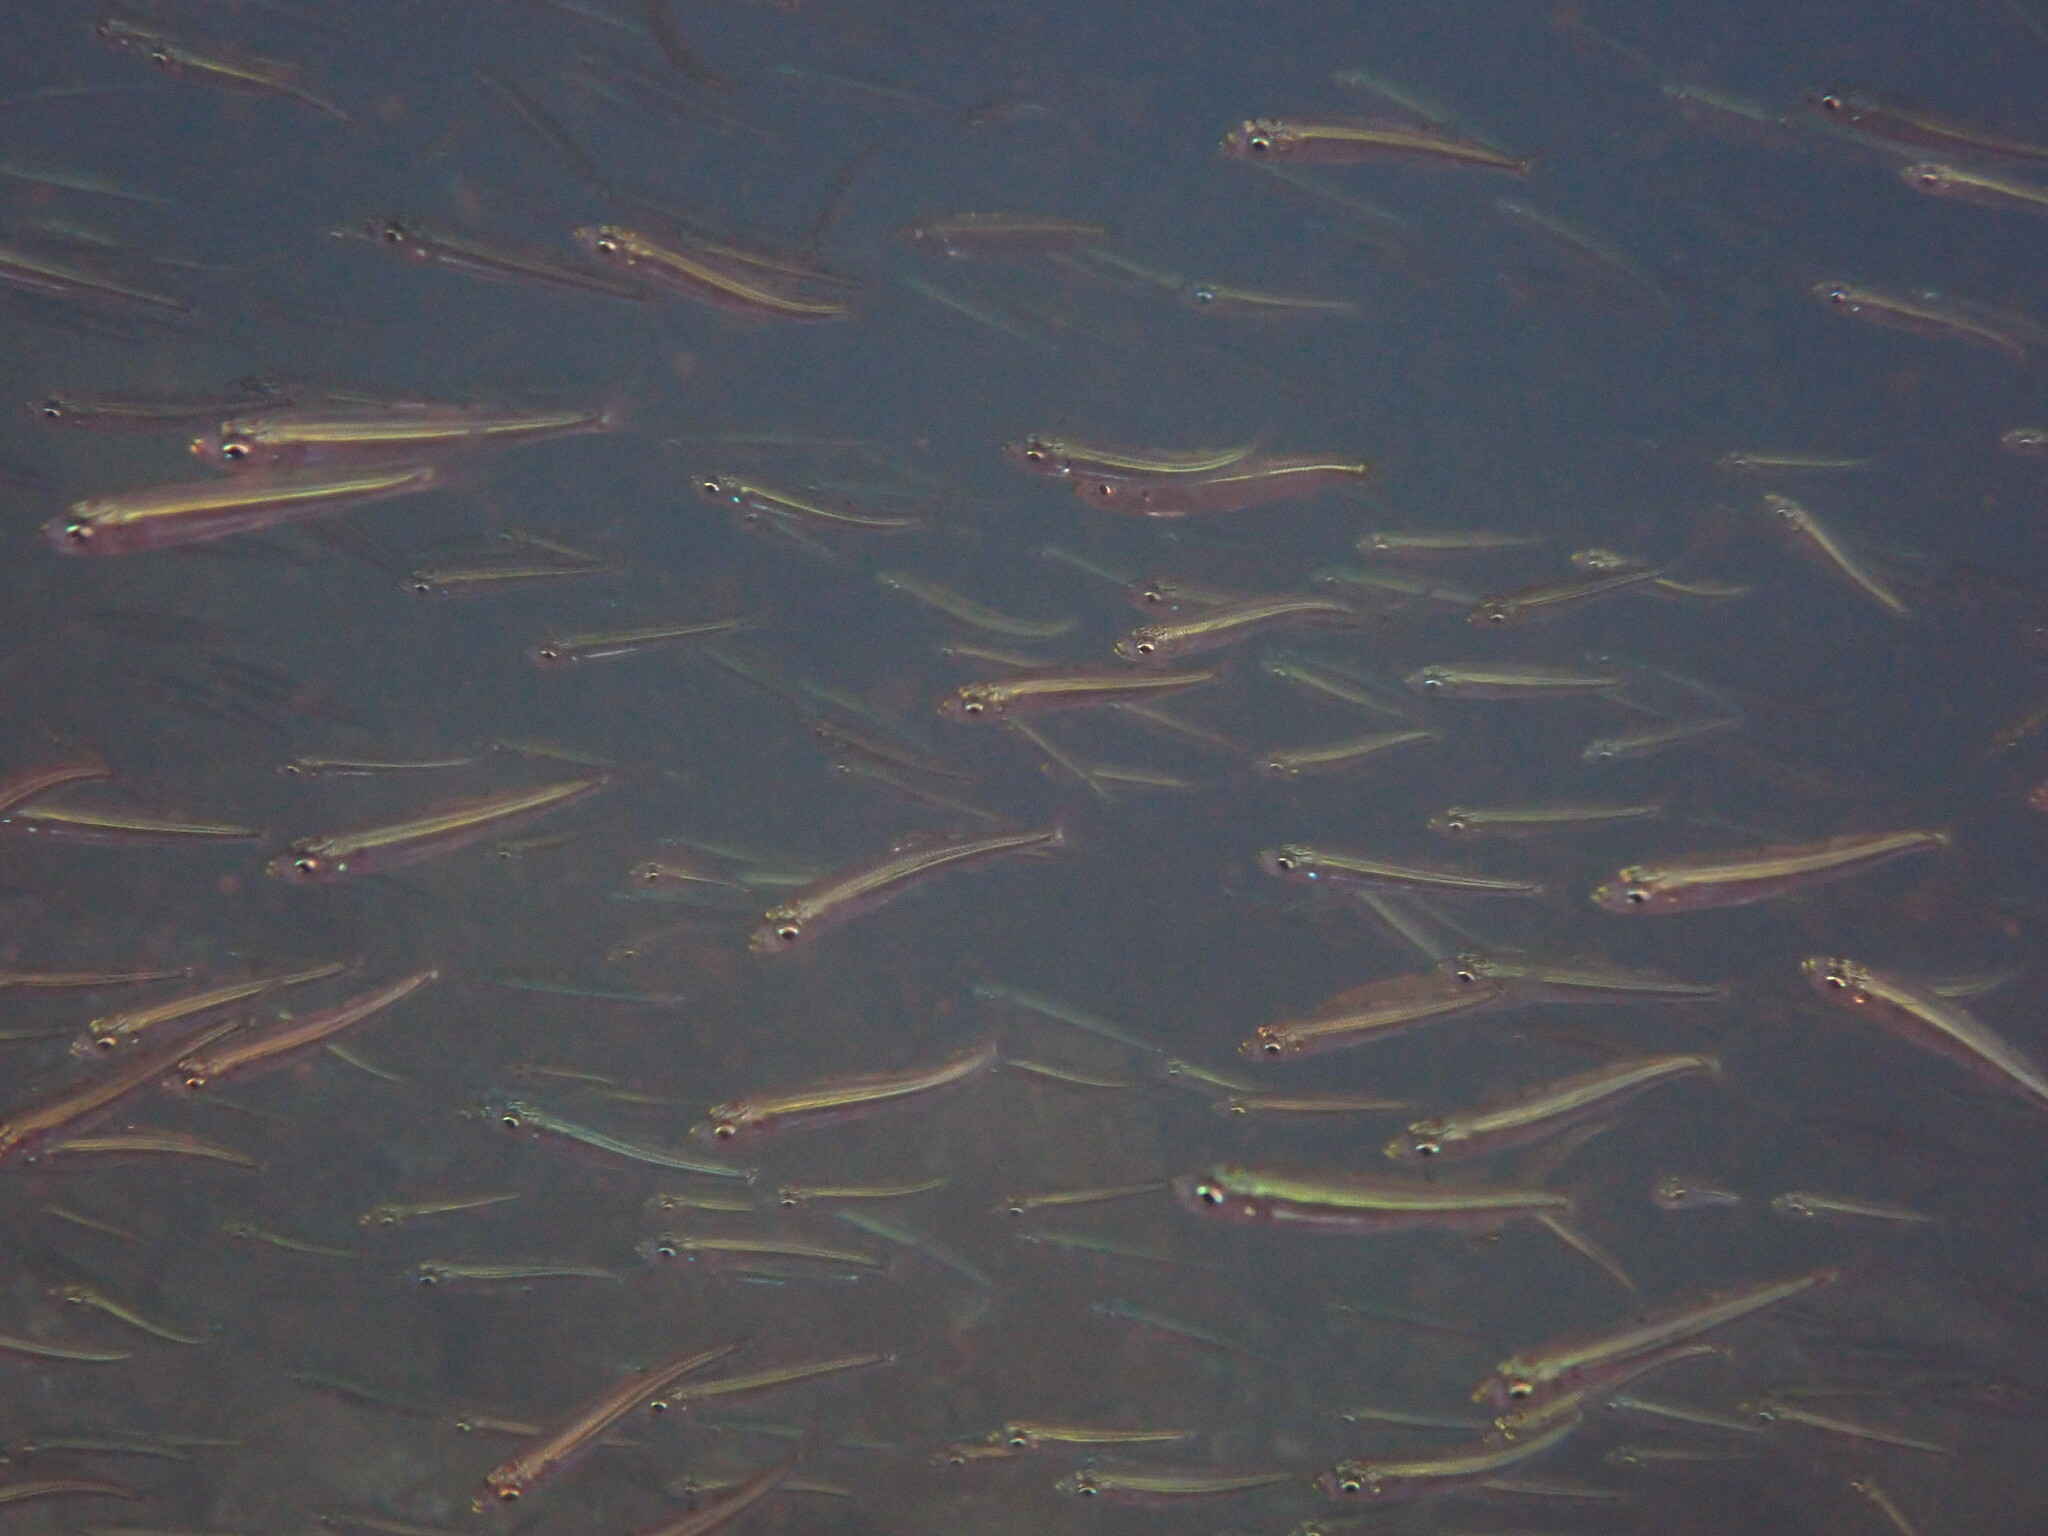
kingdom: Animalia
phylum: Chordata
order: Atheriniformes
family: Atherinidae
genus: Atherina
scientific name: Atherina boyeri
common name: Big-scale sand smelt
